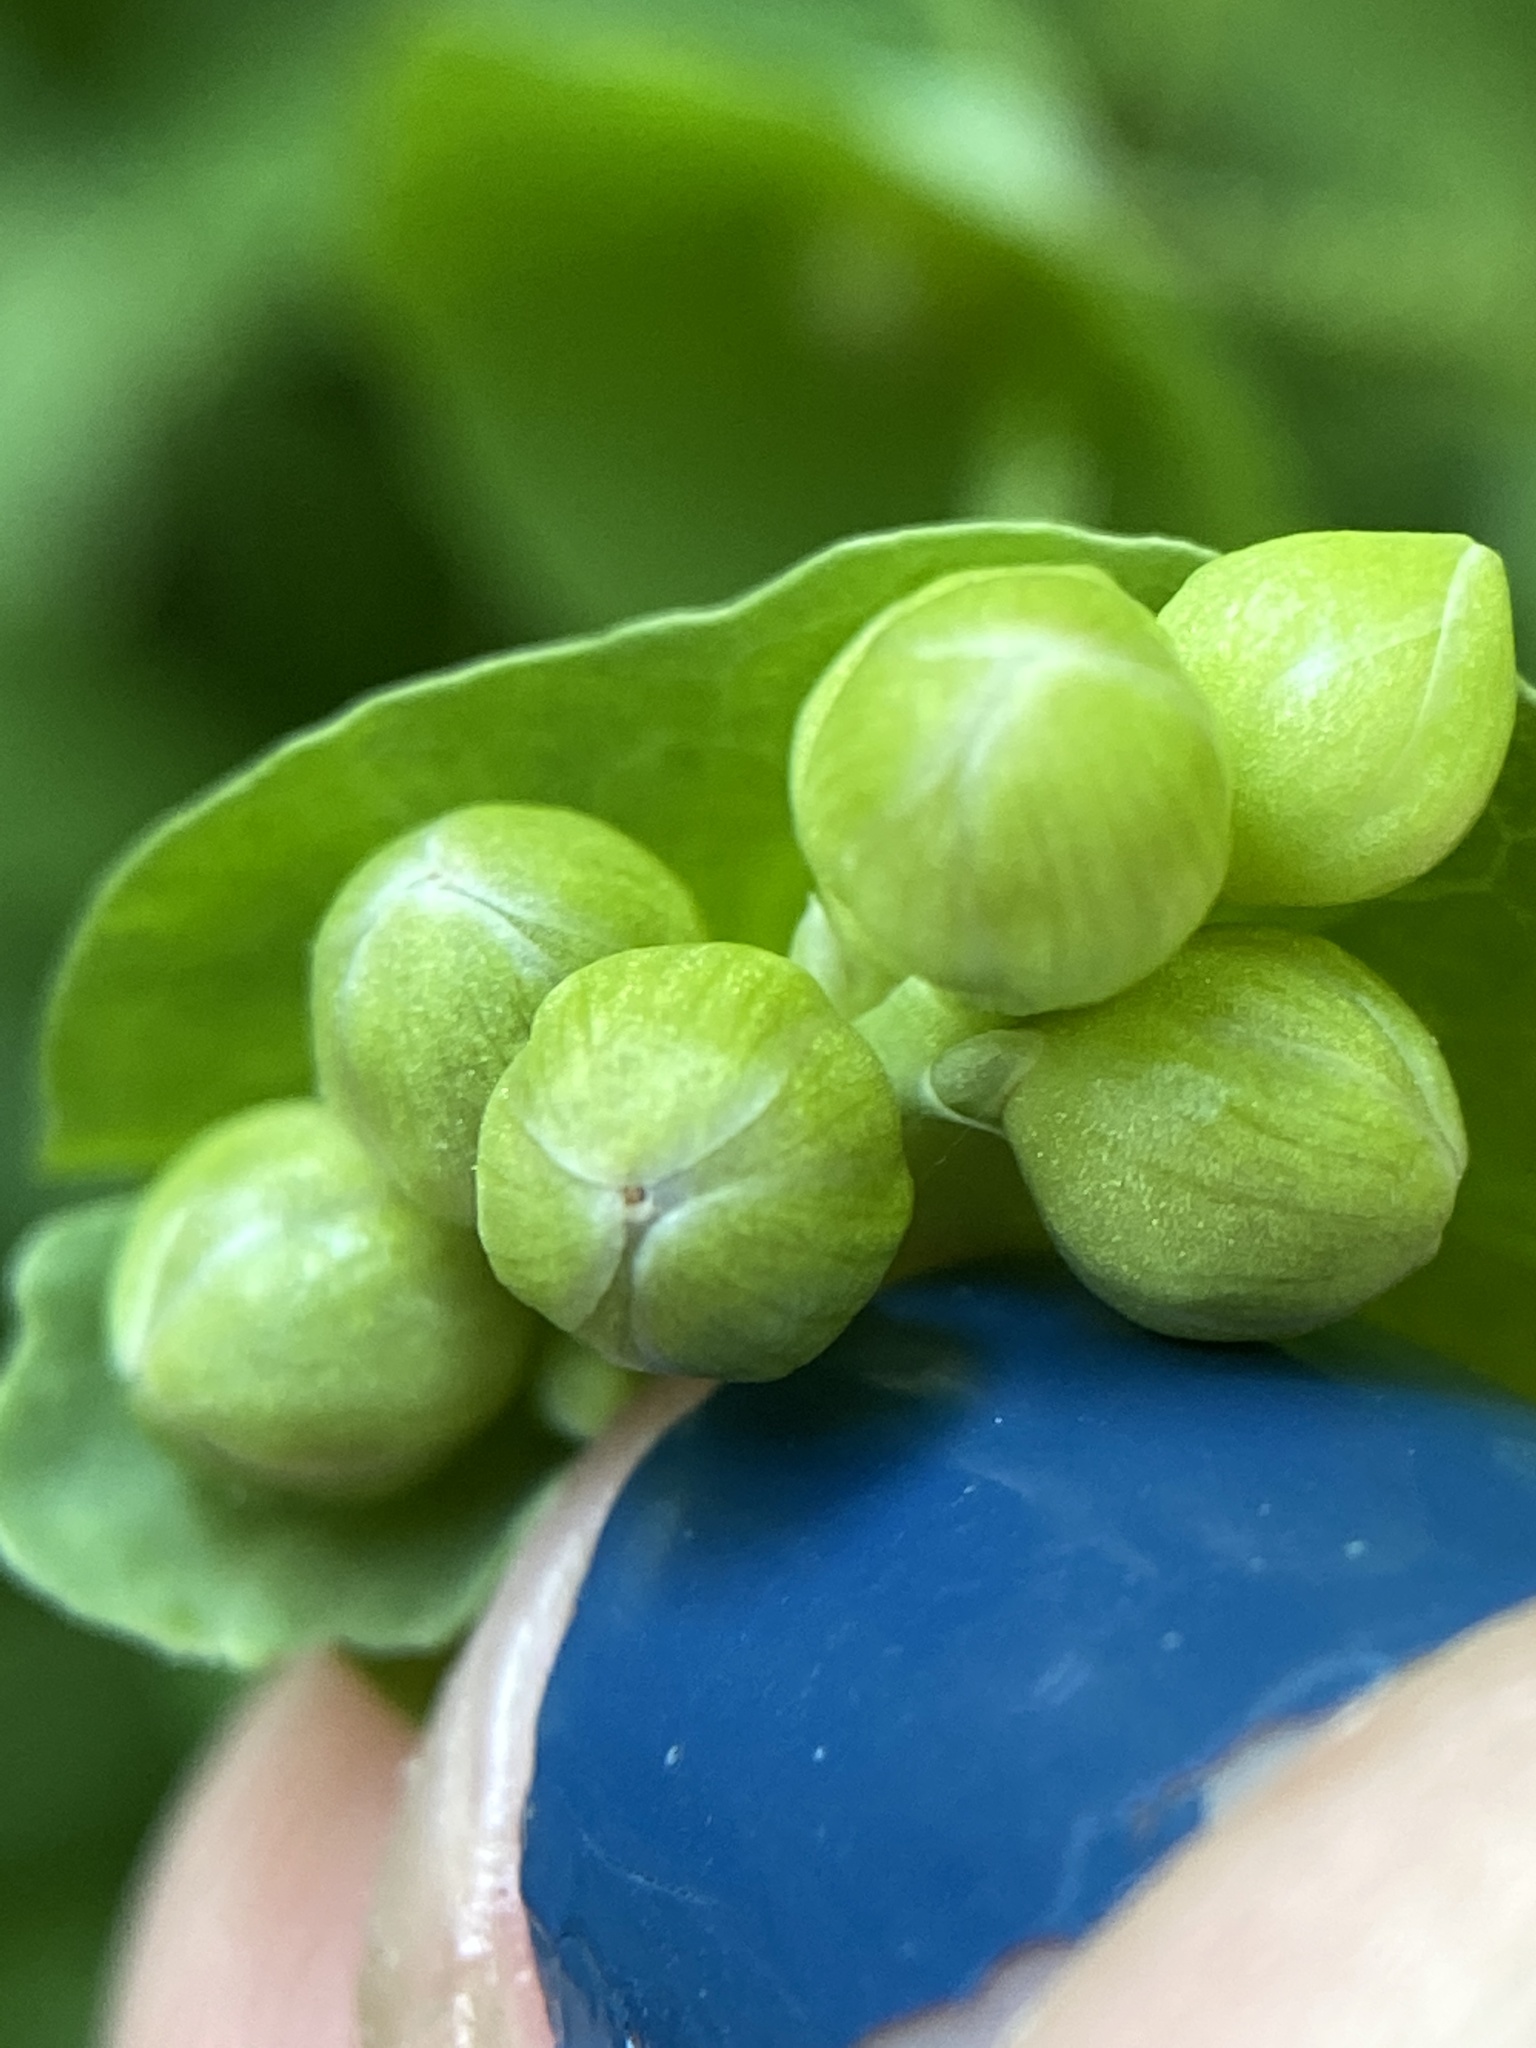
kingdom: Plantae
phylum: Tracheophyta
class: Magnoliopsida
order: Caryophyllales
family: Polygonaceae
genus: Persicaria
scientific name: Persicaria perfoliata
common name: Asiatic tearthumb
